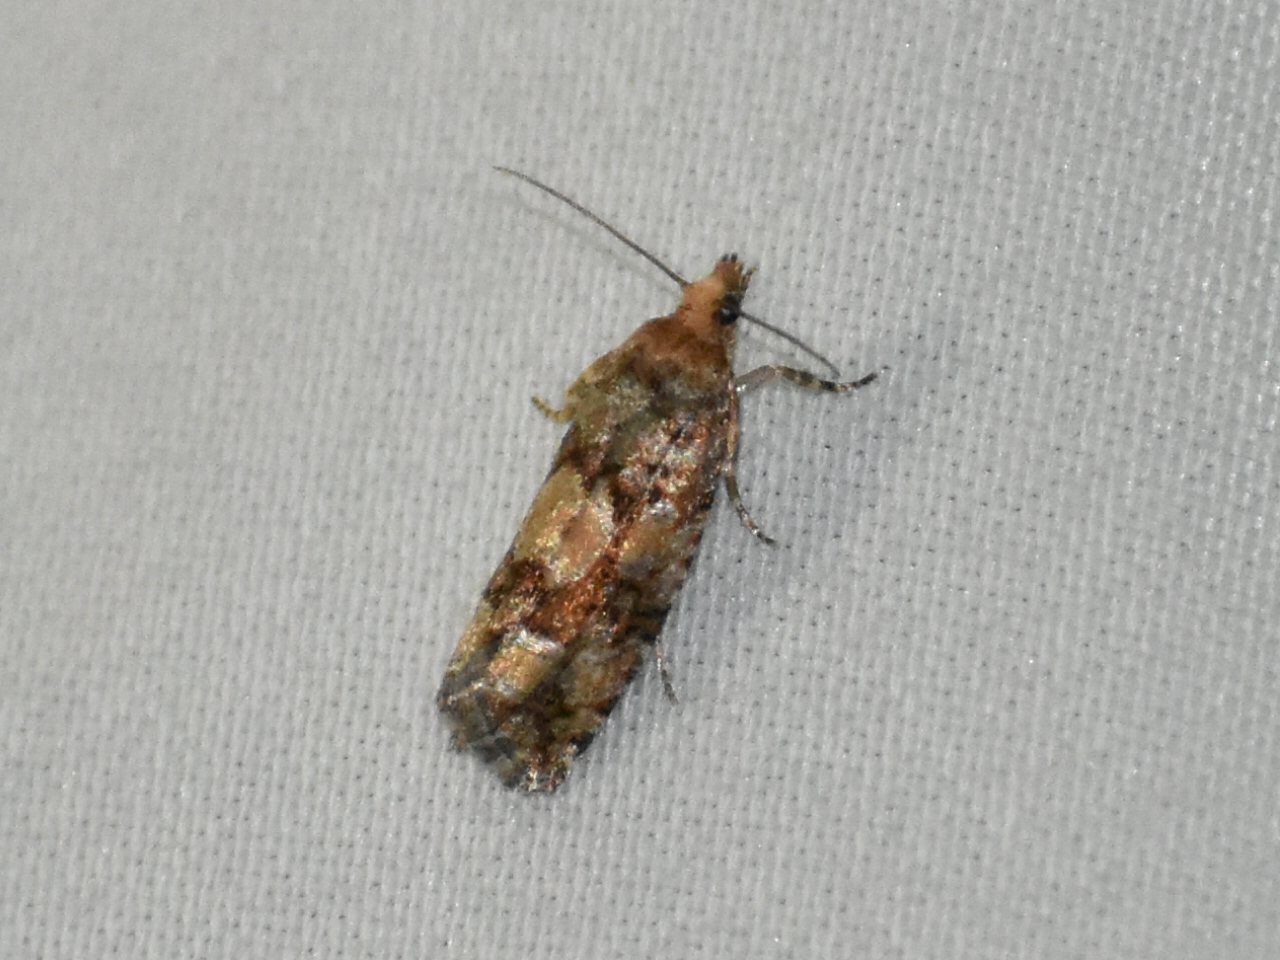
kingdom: Animalia
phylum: Arthropoda
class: Insecta
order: Lepidoptera
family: Tortricidae
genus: Eucopina
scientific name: Eucopina tocullionana
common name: White pinecone borer moth
